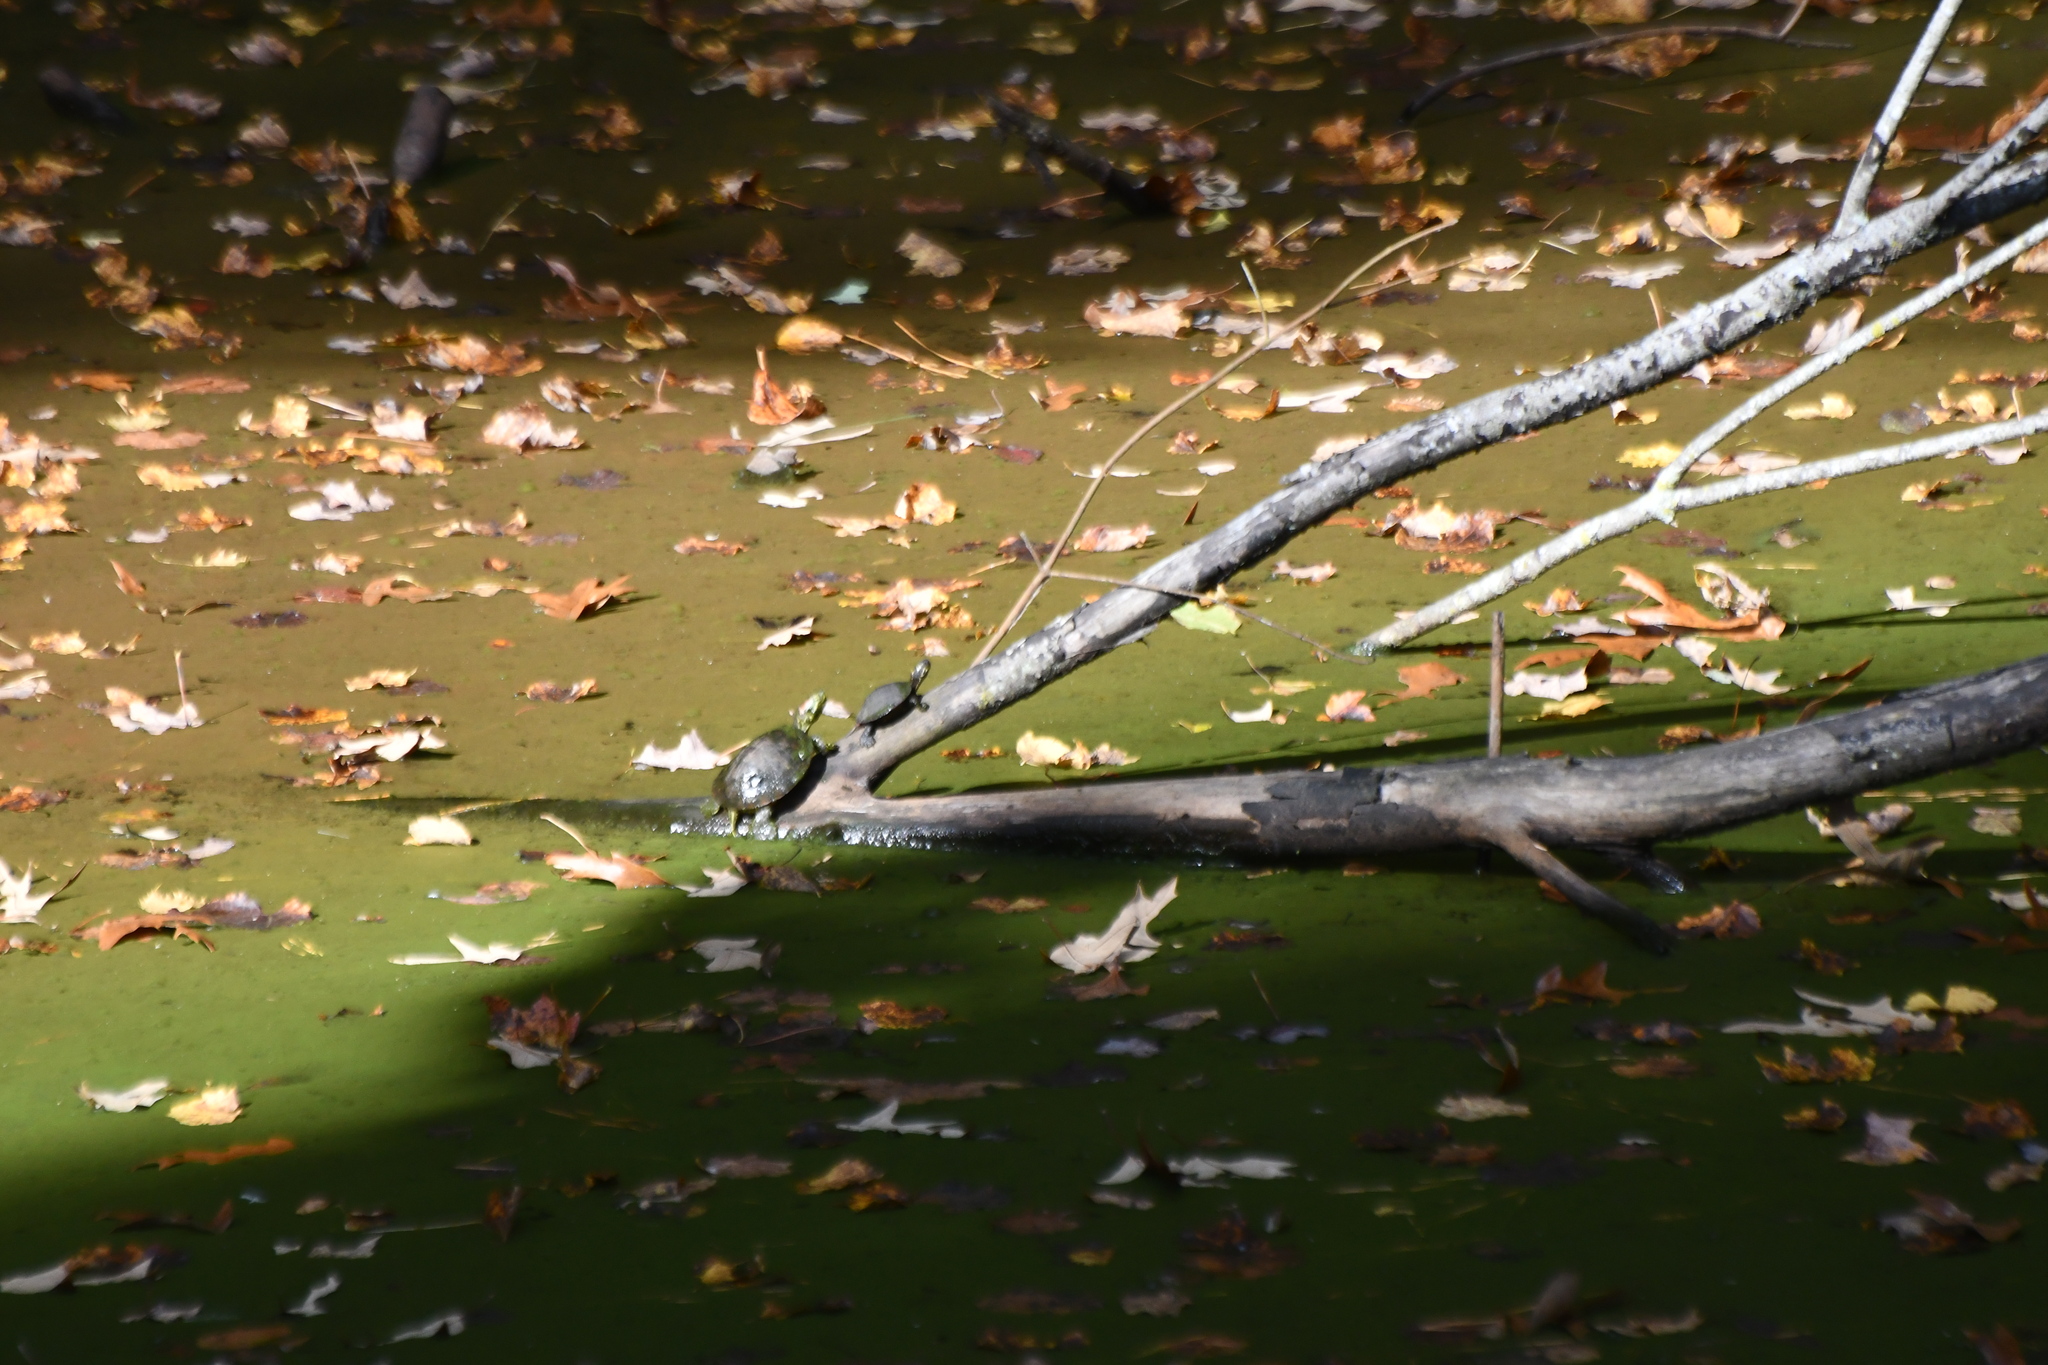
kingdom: Animalia
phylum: Chordata
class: Testudines
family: Emydidae
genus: Trachemys
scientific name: Trachemys scripta
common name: Slider
